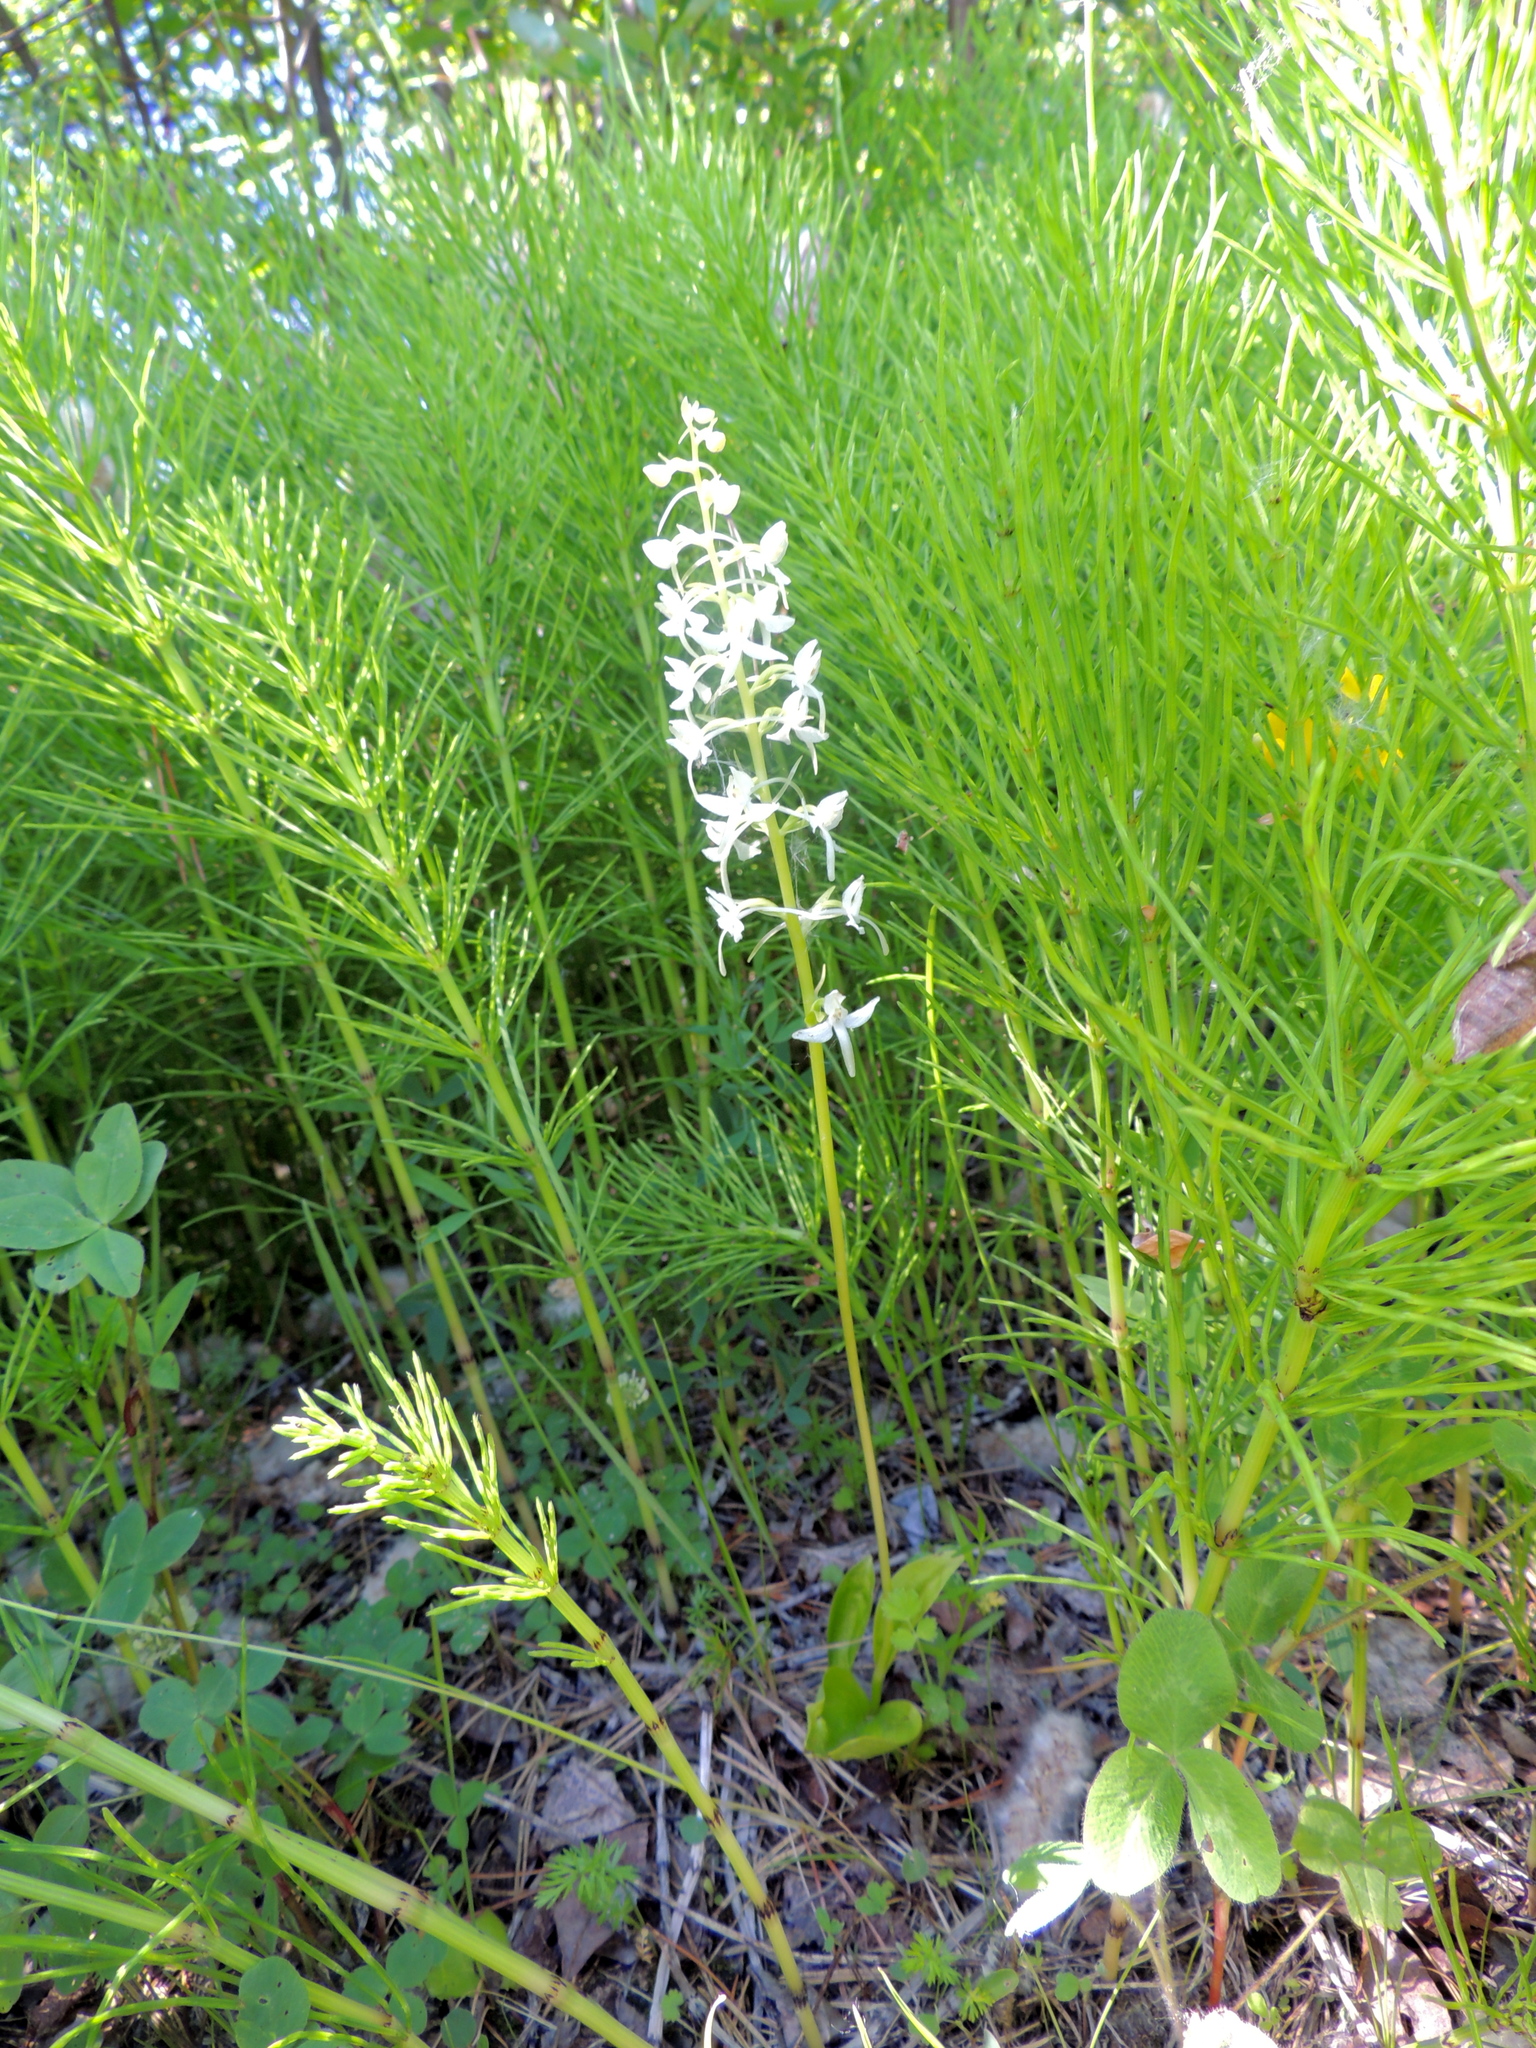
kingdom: Plantae
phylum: Tracheophyta
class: Liliopsida
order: Asparagales
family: Orchidaceae
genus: Platanthera
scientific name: Platanthera bifolia
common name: Lesser butterfly-orchid
